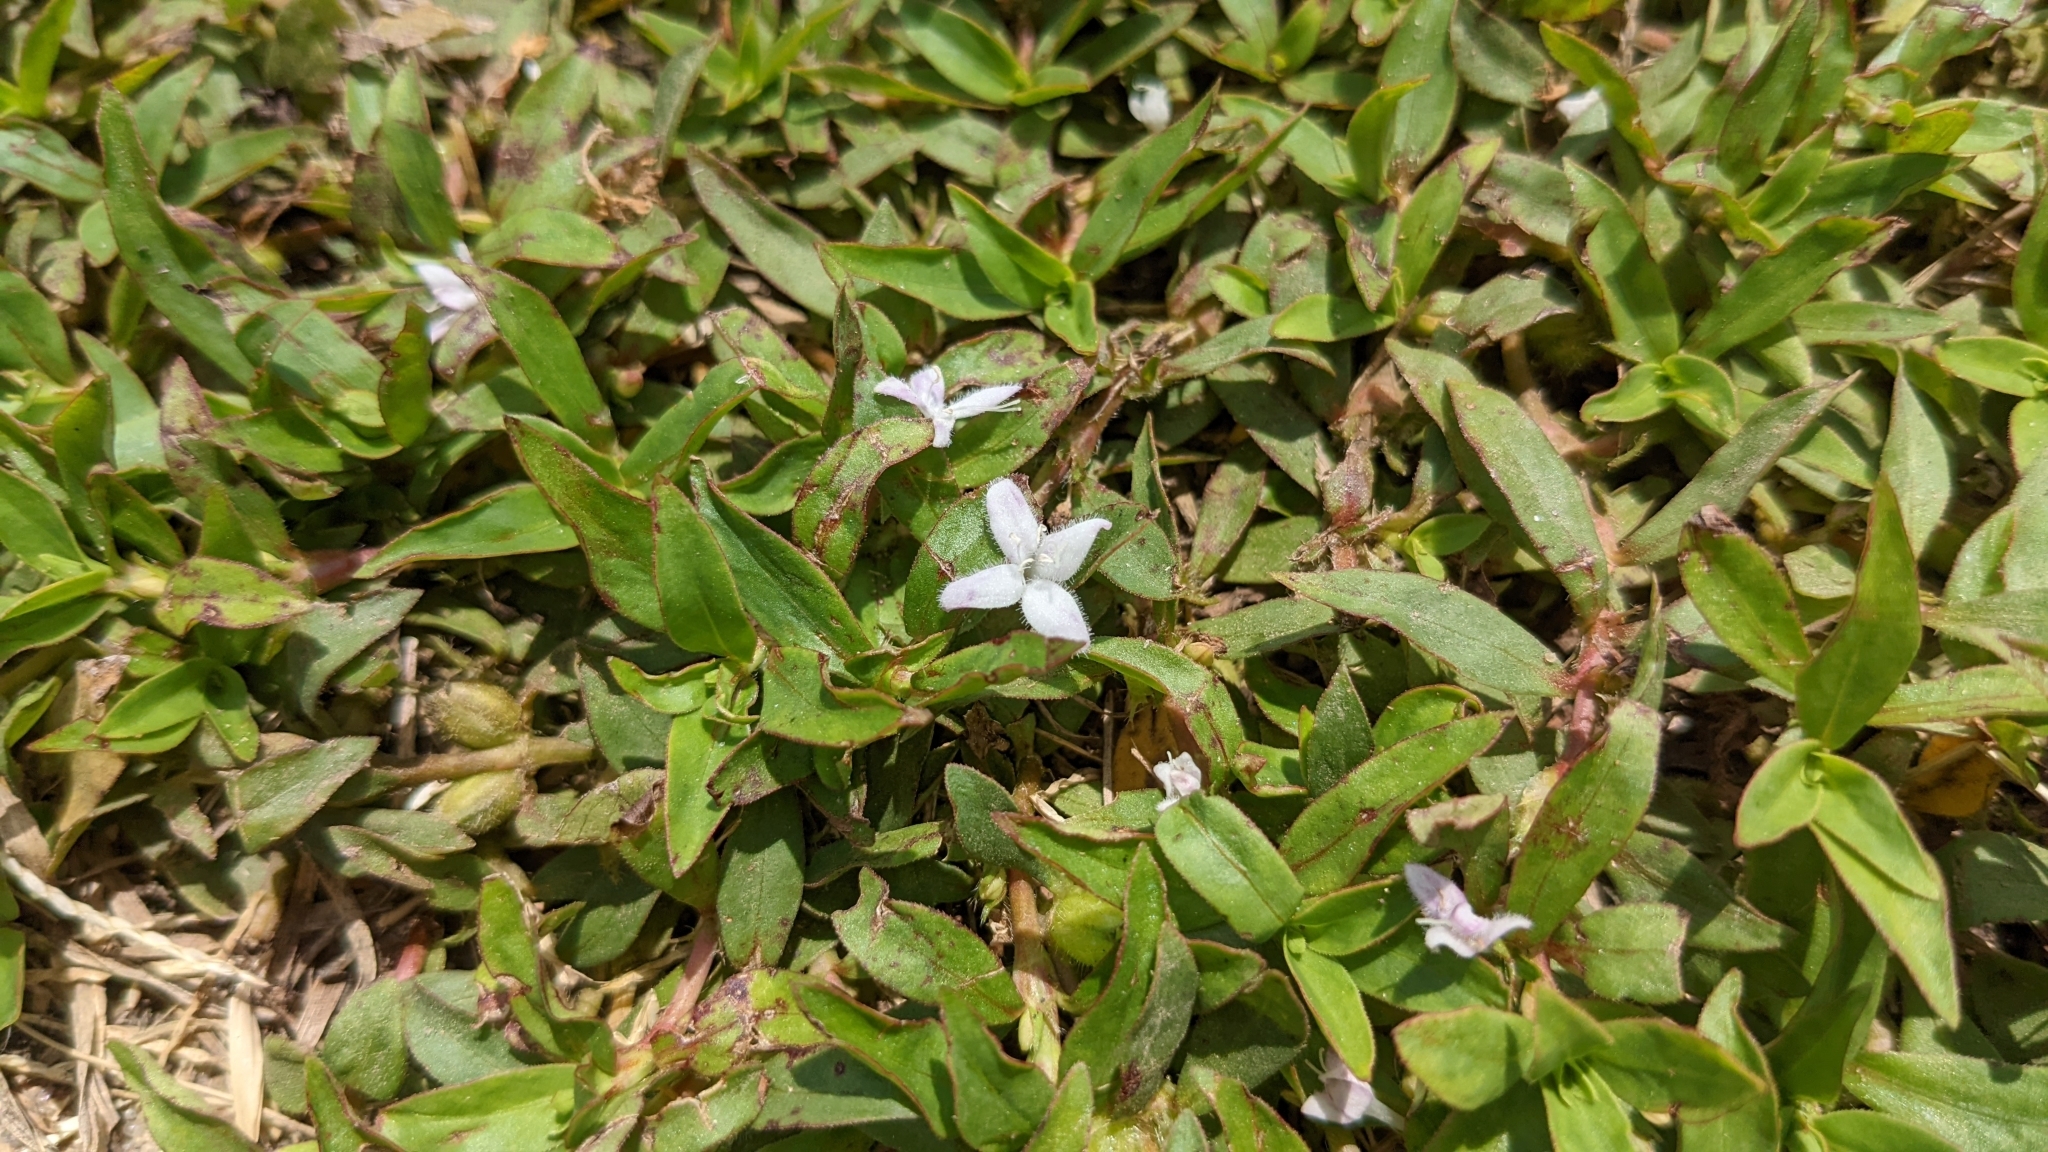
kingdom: Plantae
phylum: Tracheophyta
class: Magnoliopsida
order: Gentianales
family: Rubiaceae
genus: Diodia
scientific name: Diodia virginiana
